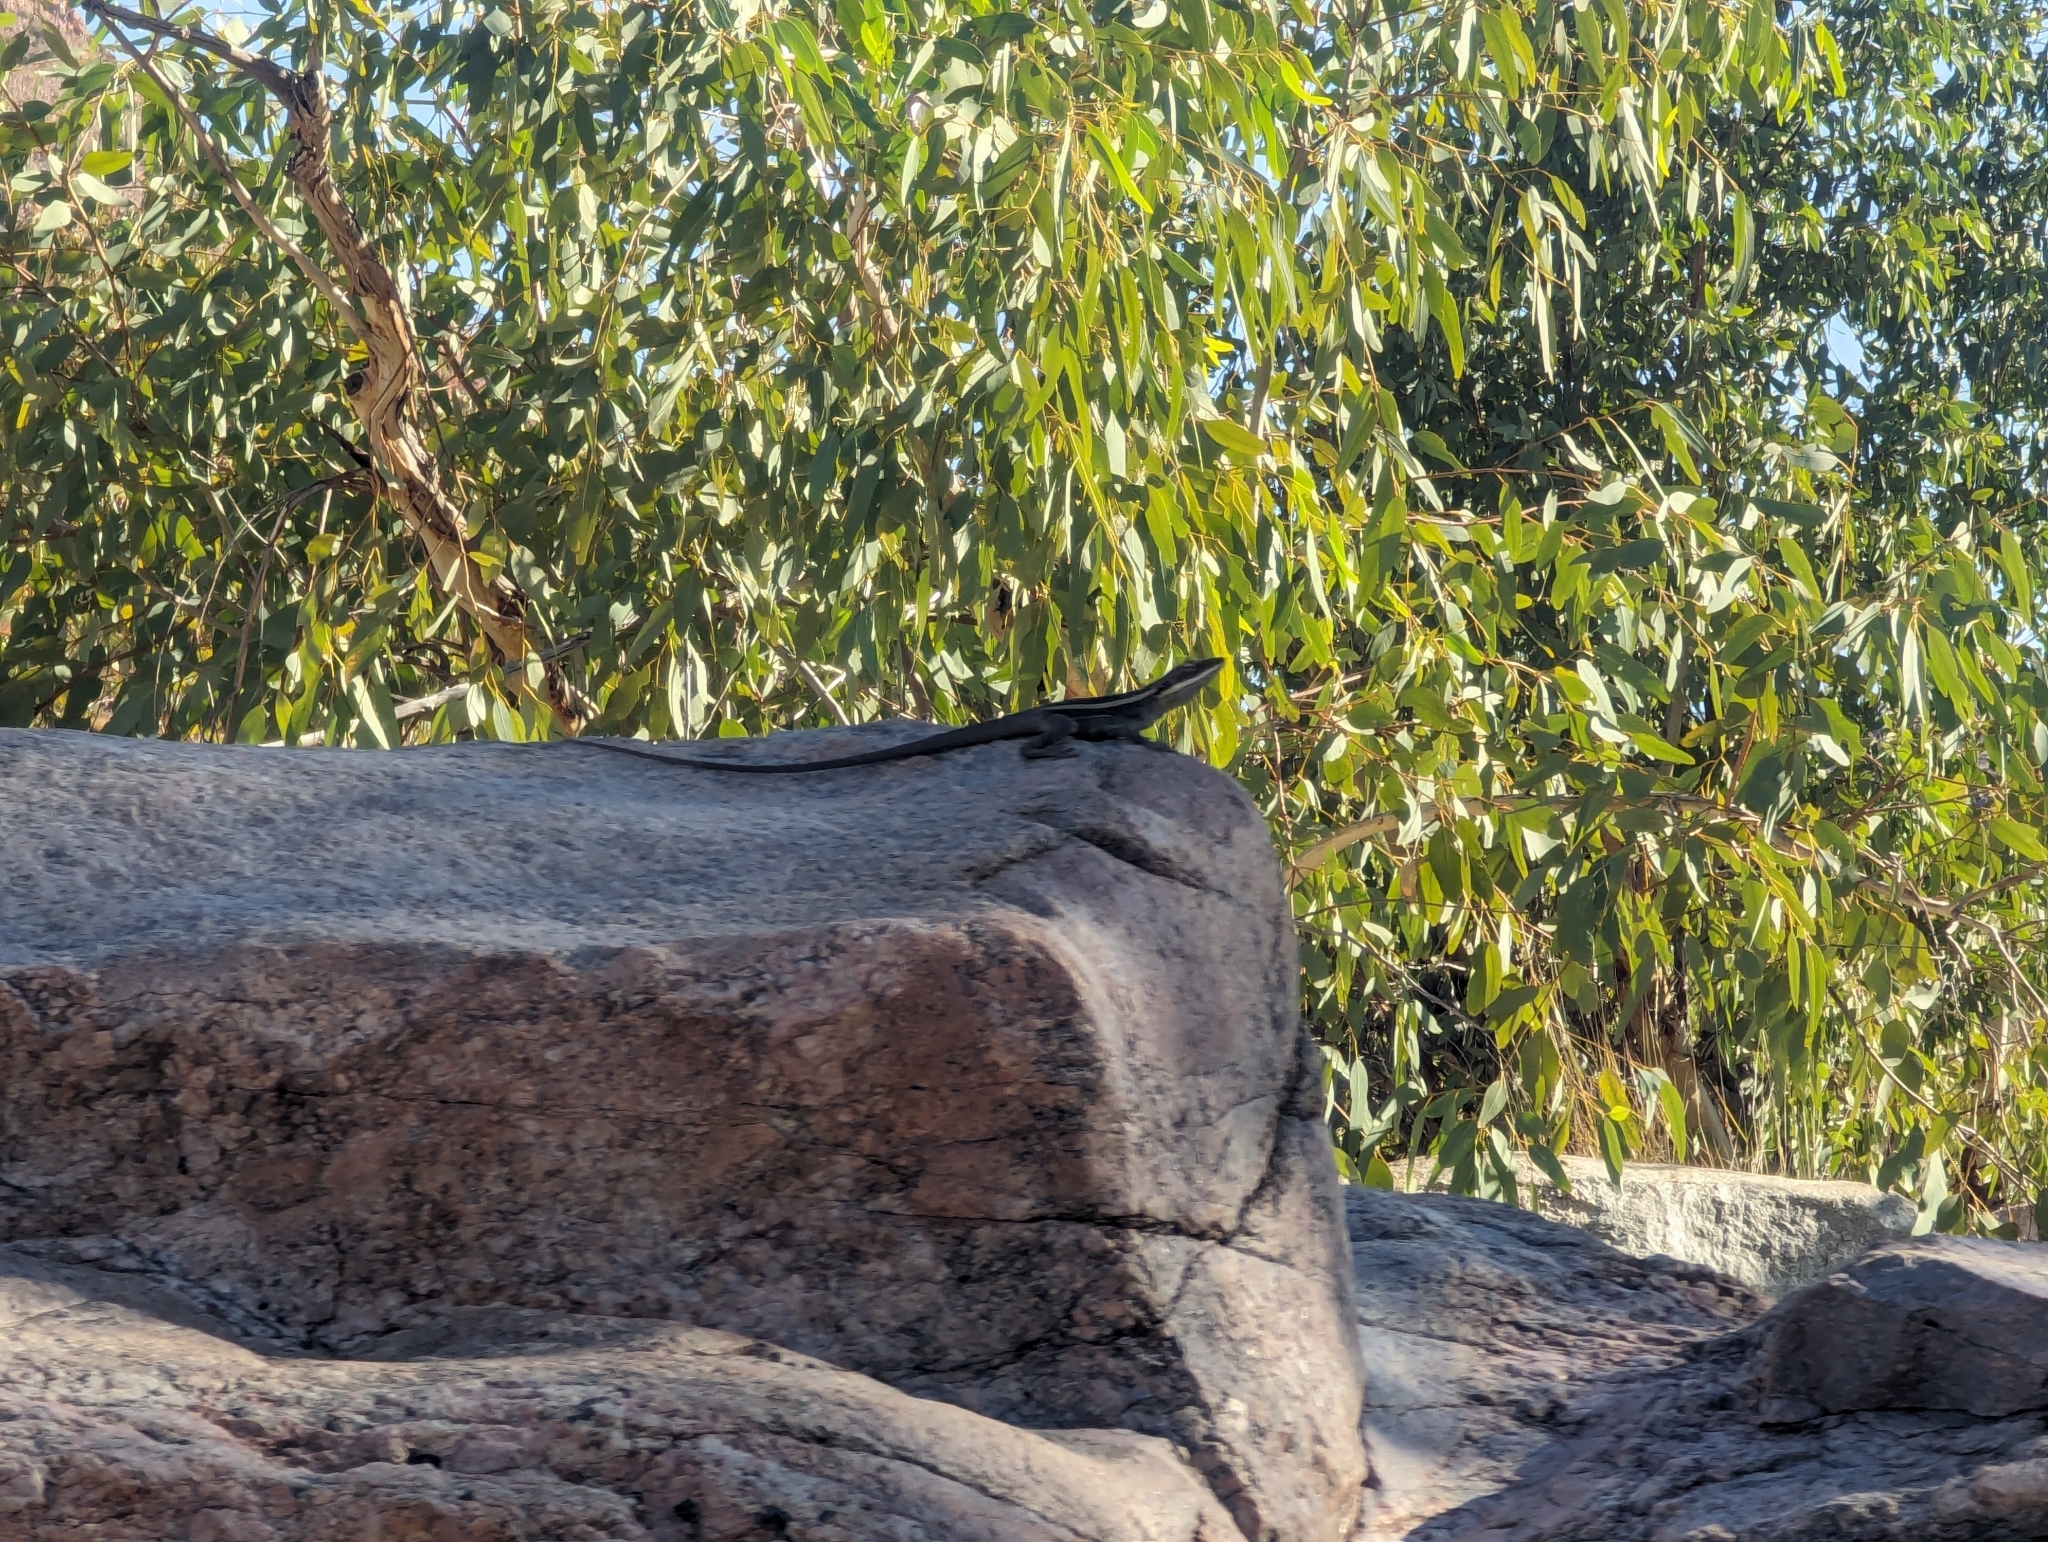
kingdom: Animalia
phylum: Chordata
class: Squamata
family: Agamidae
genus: Gowidon
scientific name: Gowidon longirostris
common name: Long-nosed water dragon
